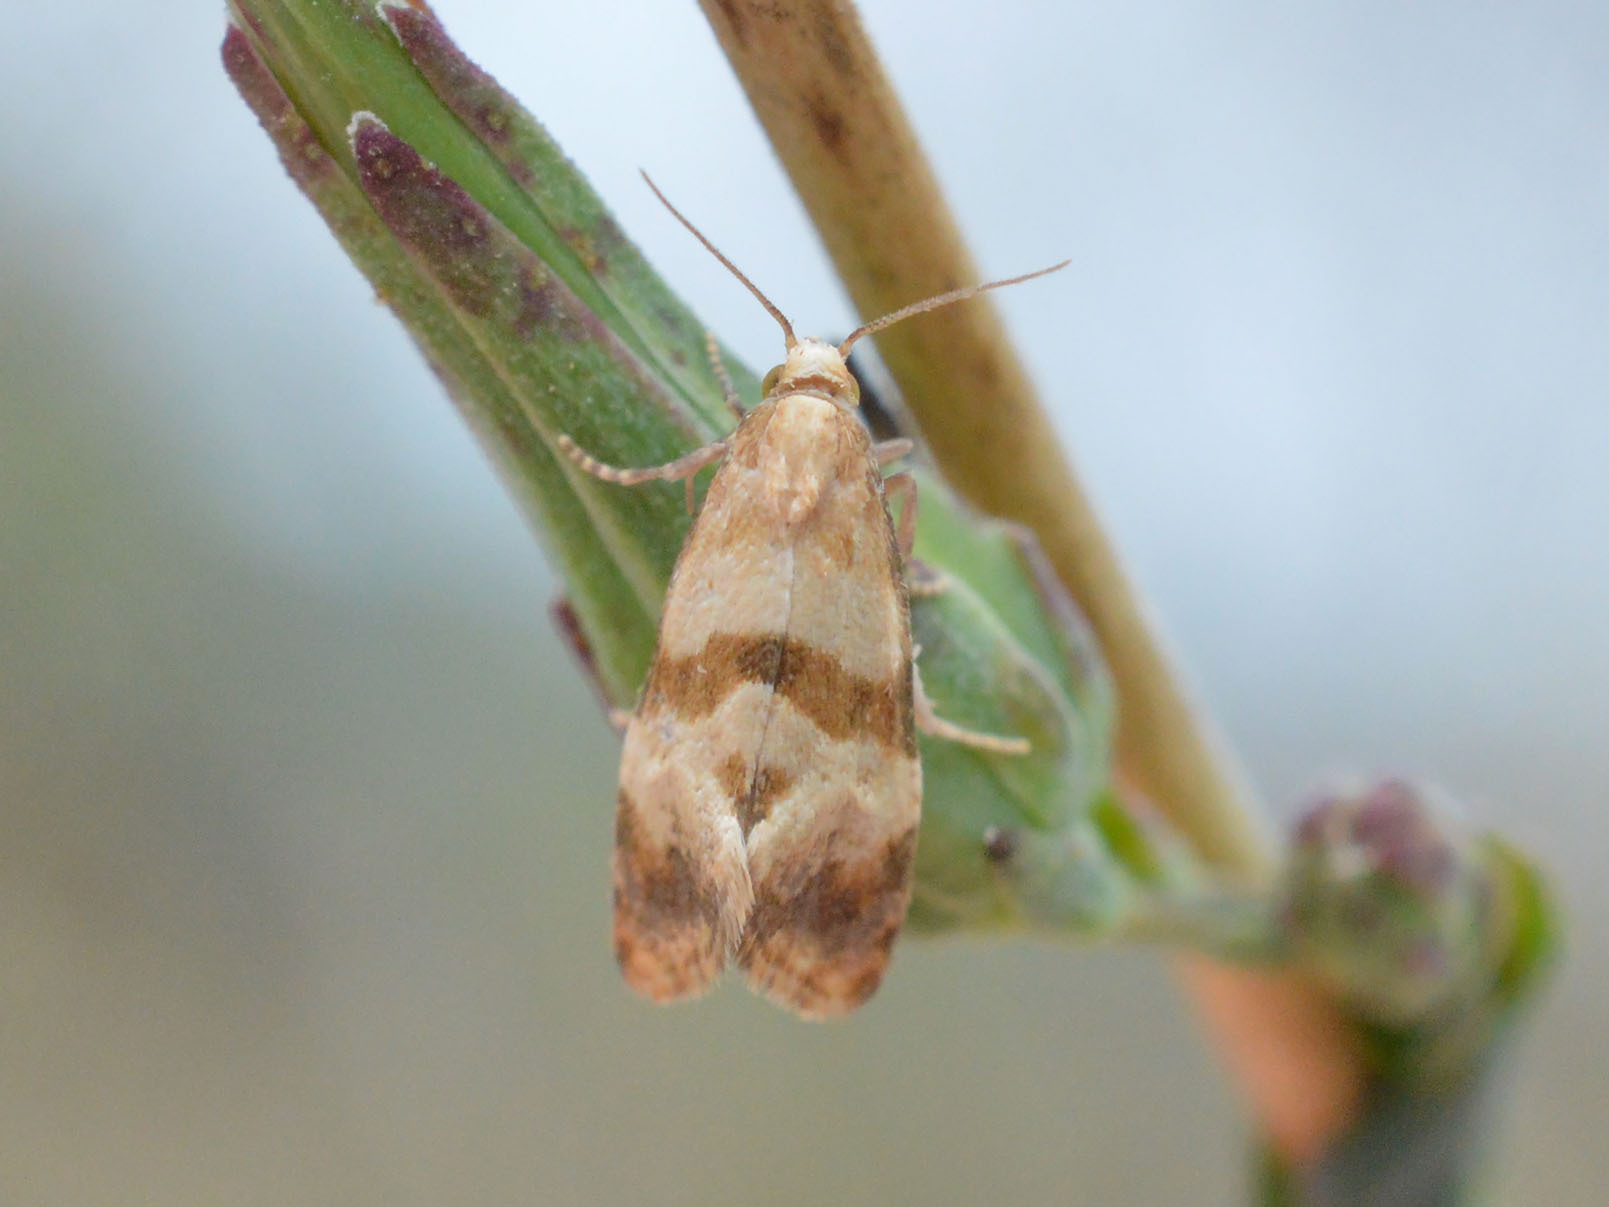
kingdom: Animalia
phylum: Arthropoda
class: Insecta
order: Lepidoptera
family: Tortricidae
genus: Phalonidia
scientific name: Phalonidia contractana
